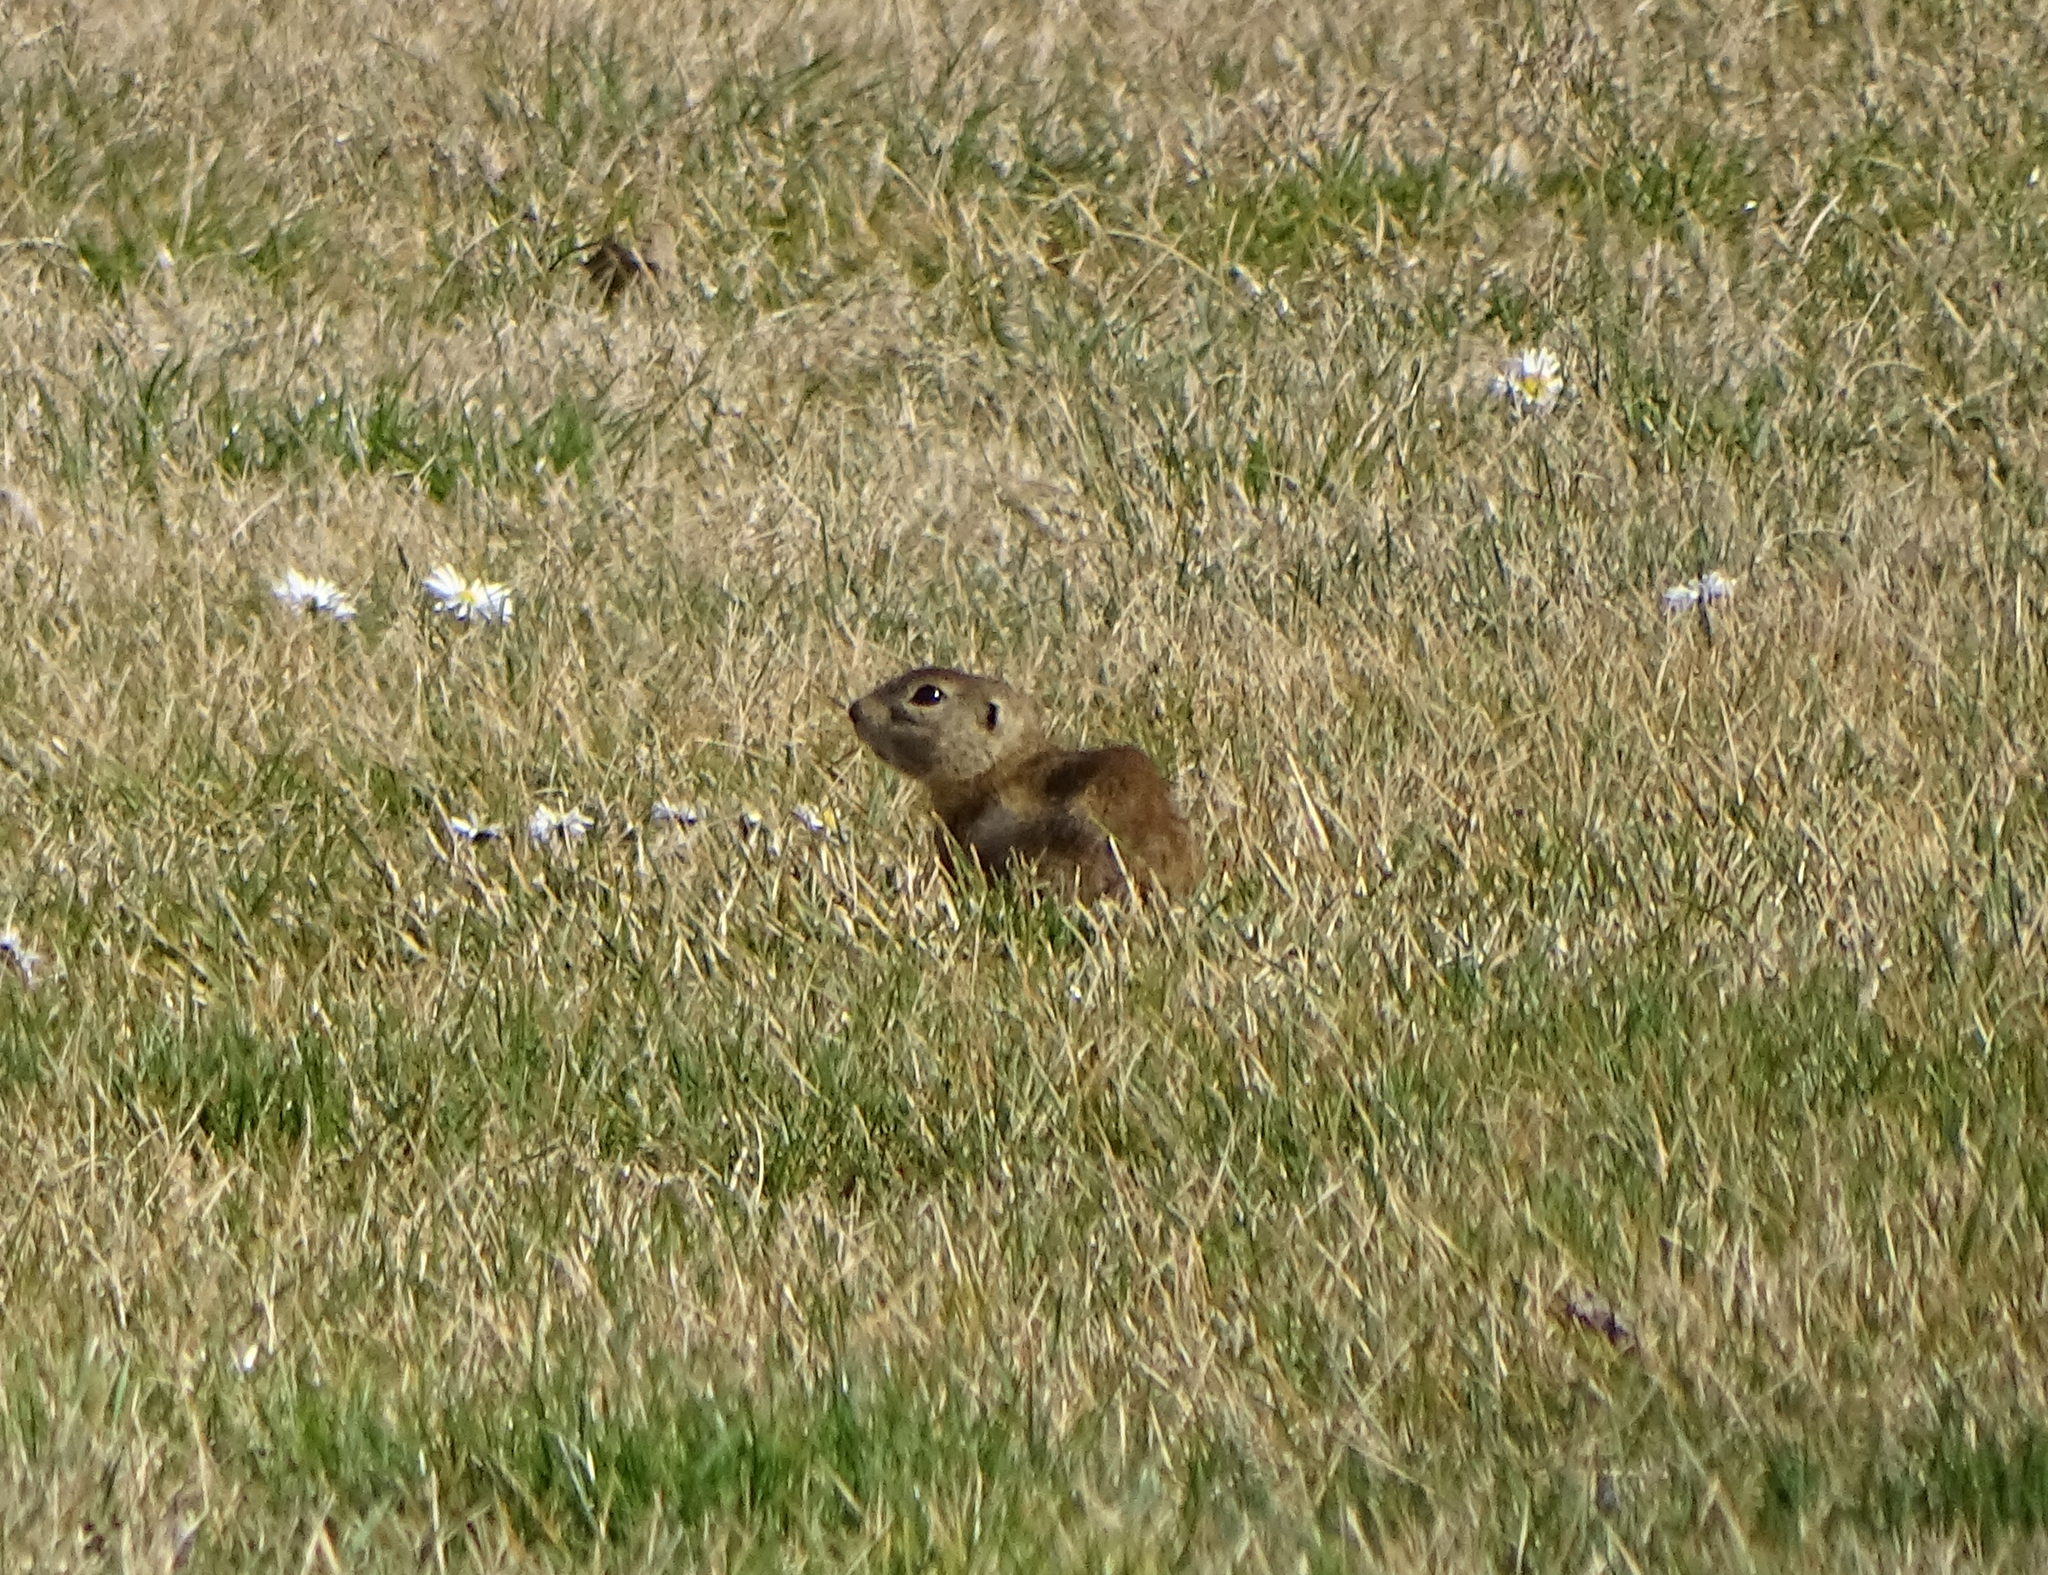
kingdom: Animalia
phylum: Chordata
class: Mammalia
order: Rodentia
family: Sciuridae
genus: Spermophilus
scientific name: Spermophilus citellus
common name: European ground squirrel
